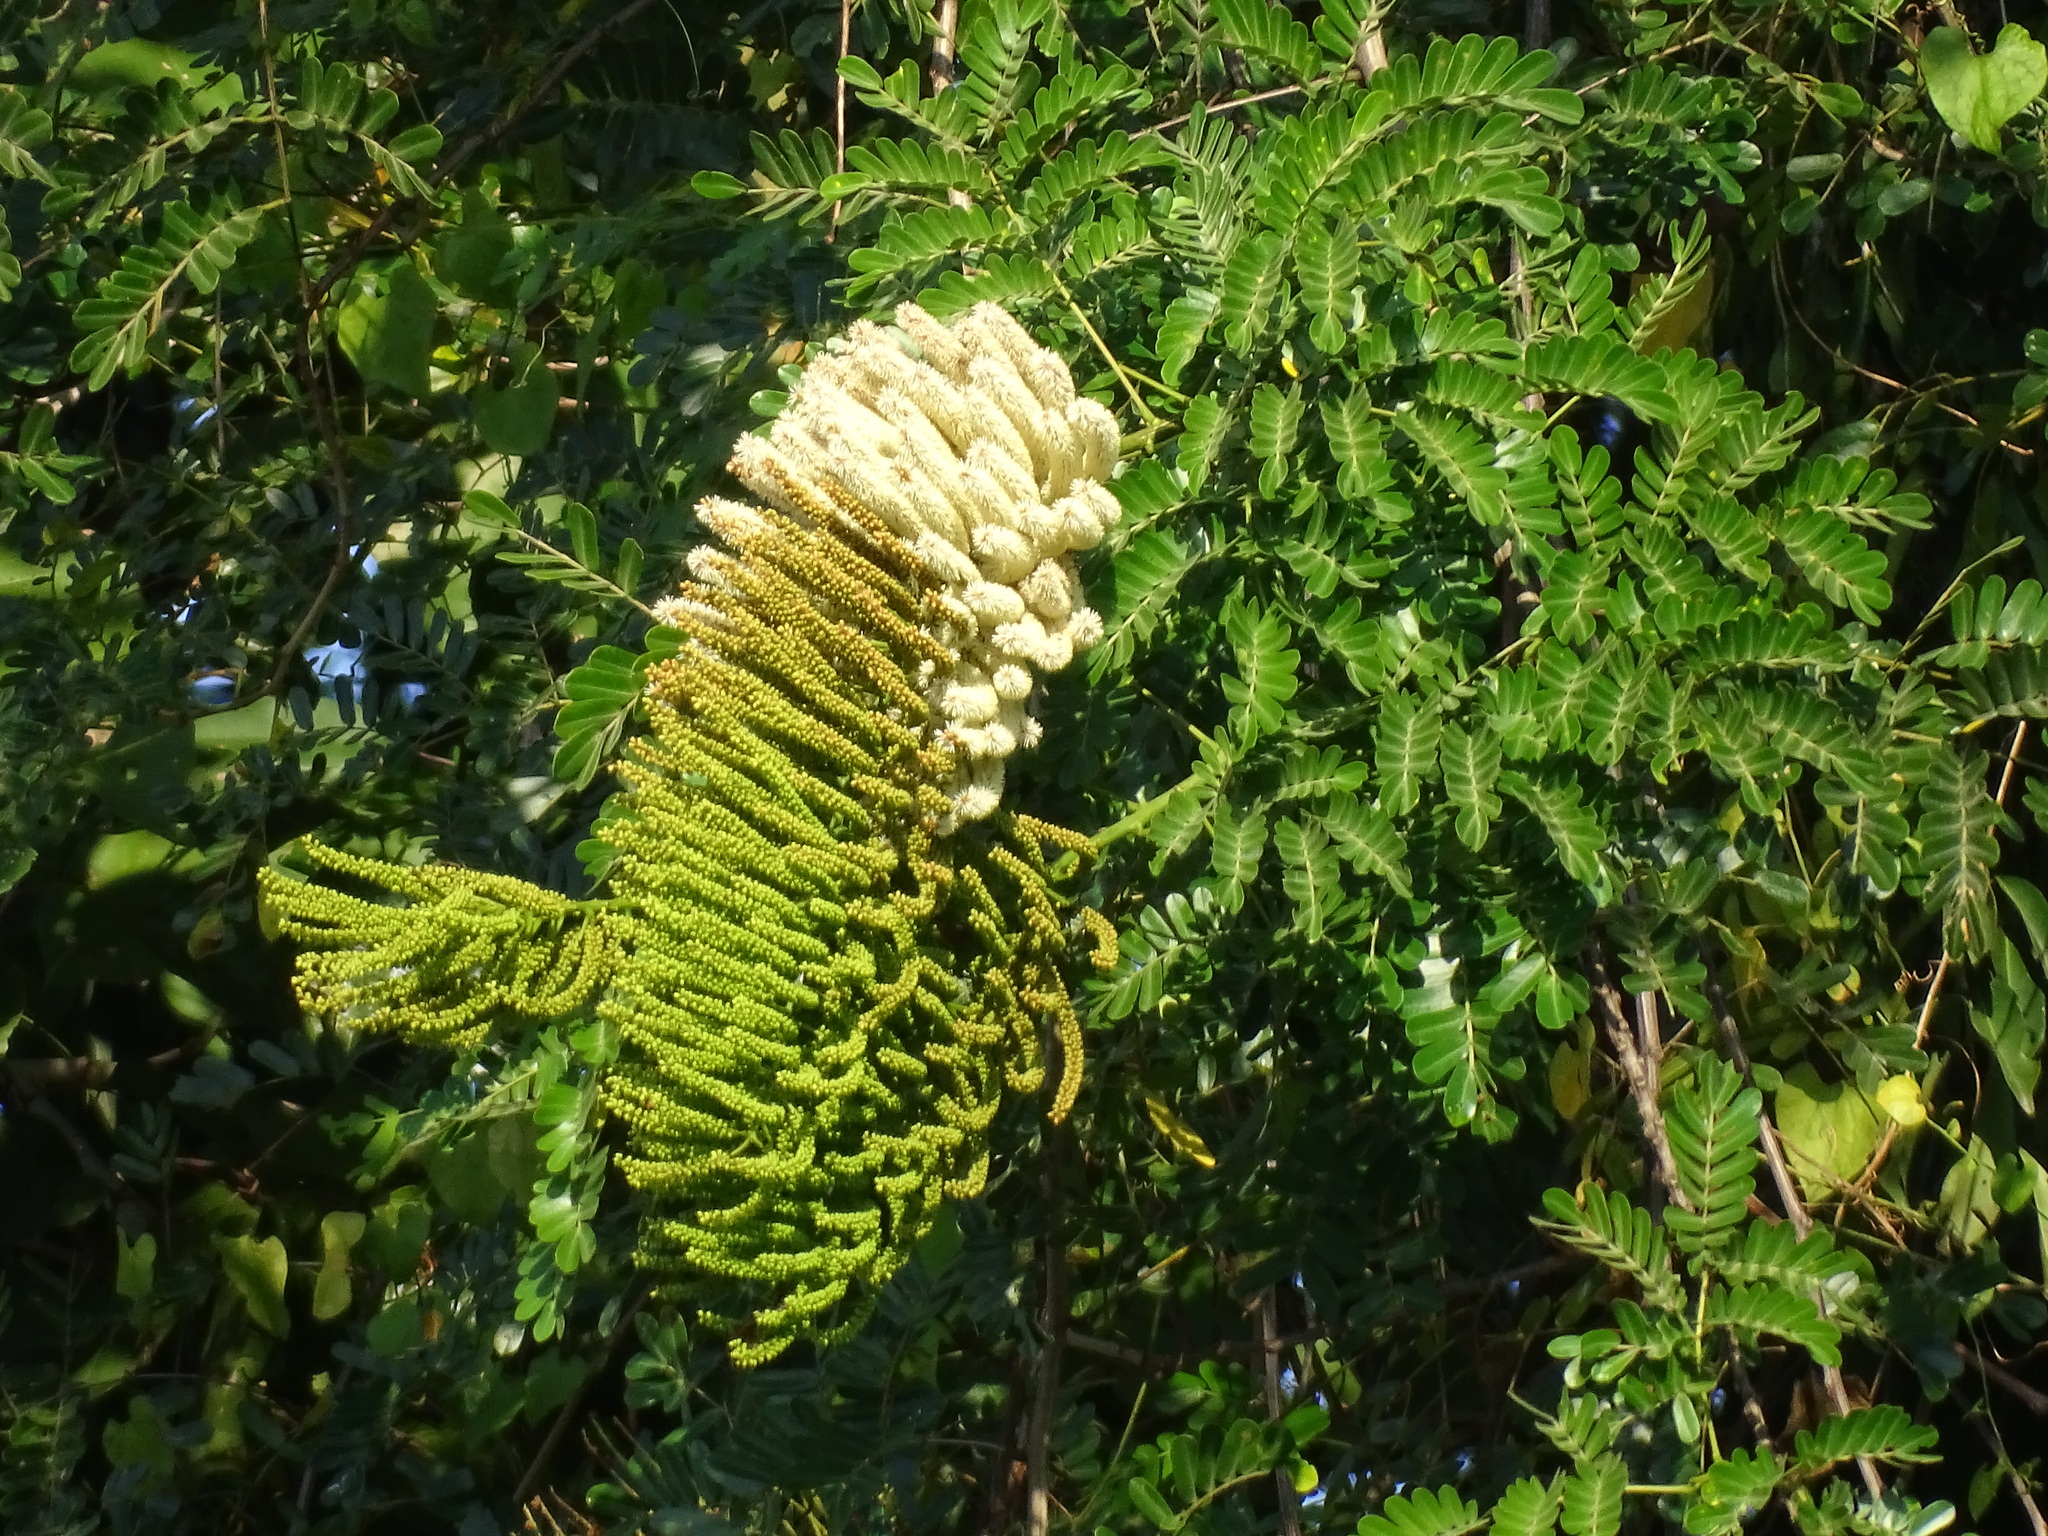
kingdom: Plantae
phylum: Tracheophyta
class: Magnoliopsida
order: Fabales
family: Fabaceae
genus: Entada
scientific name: Entada polystachya
